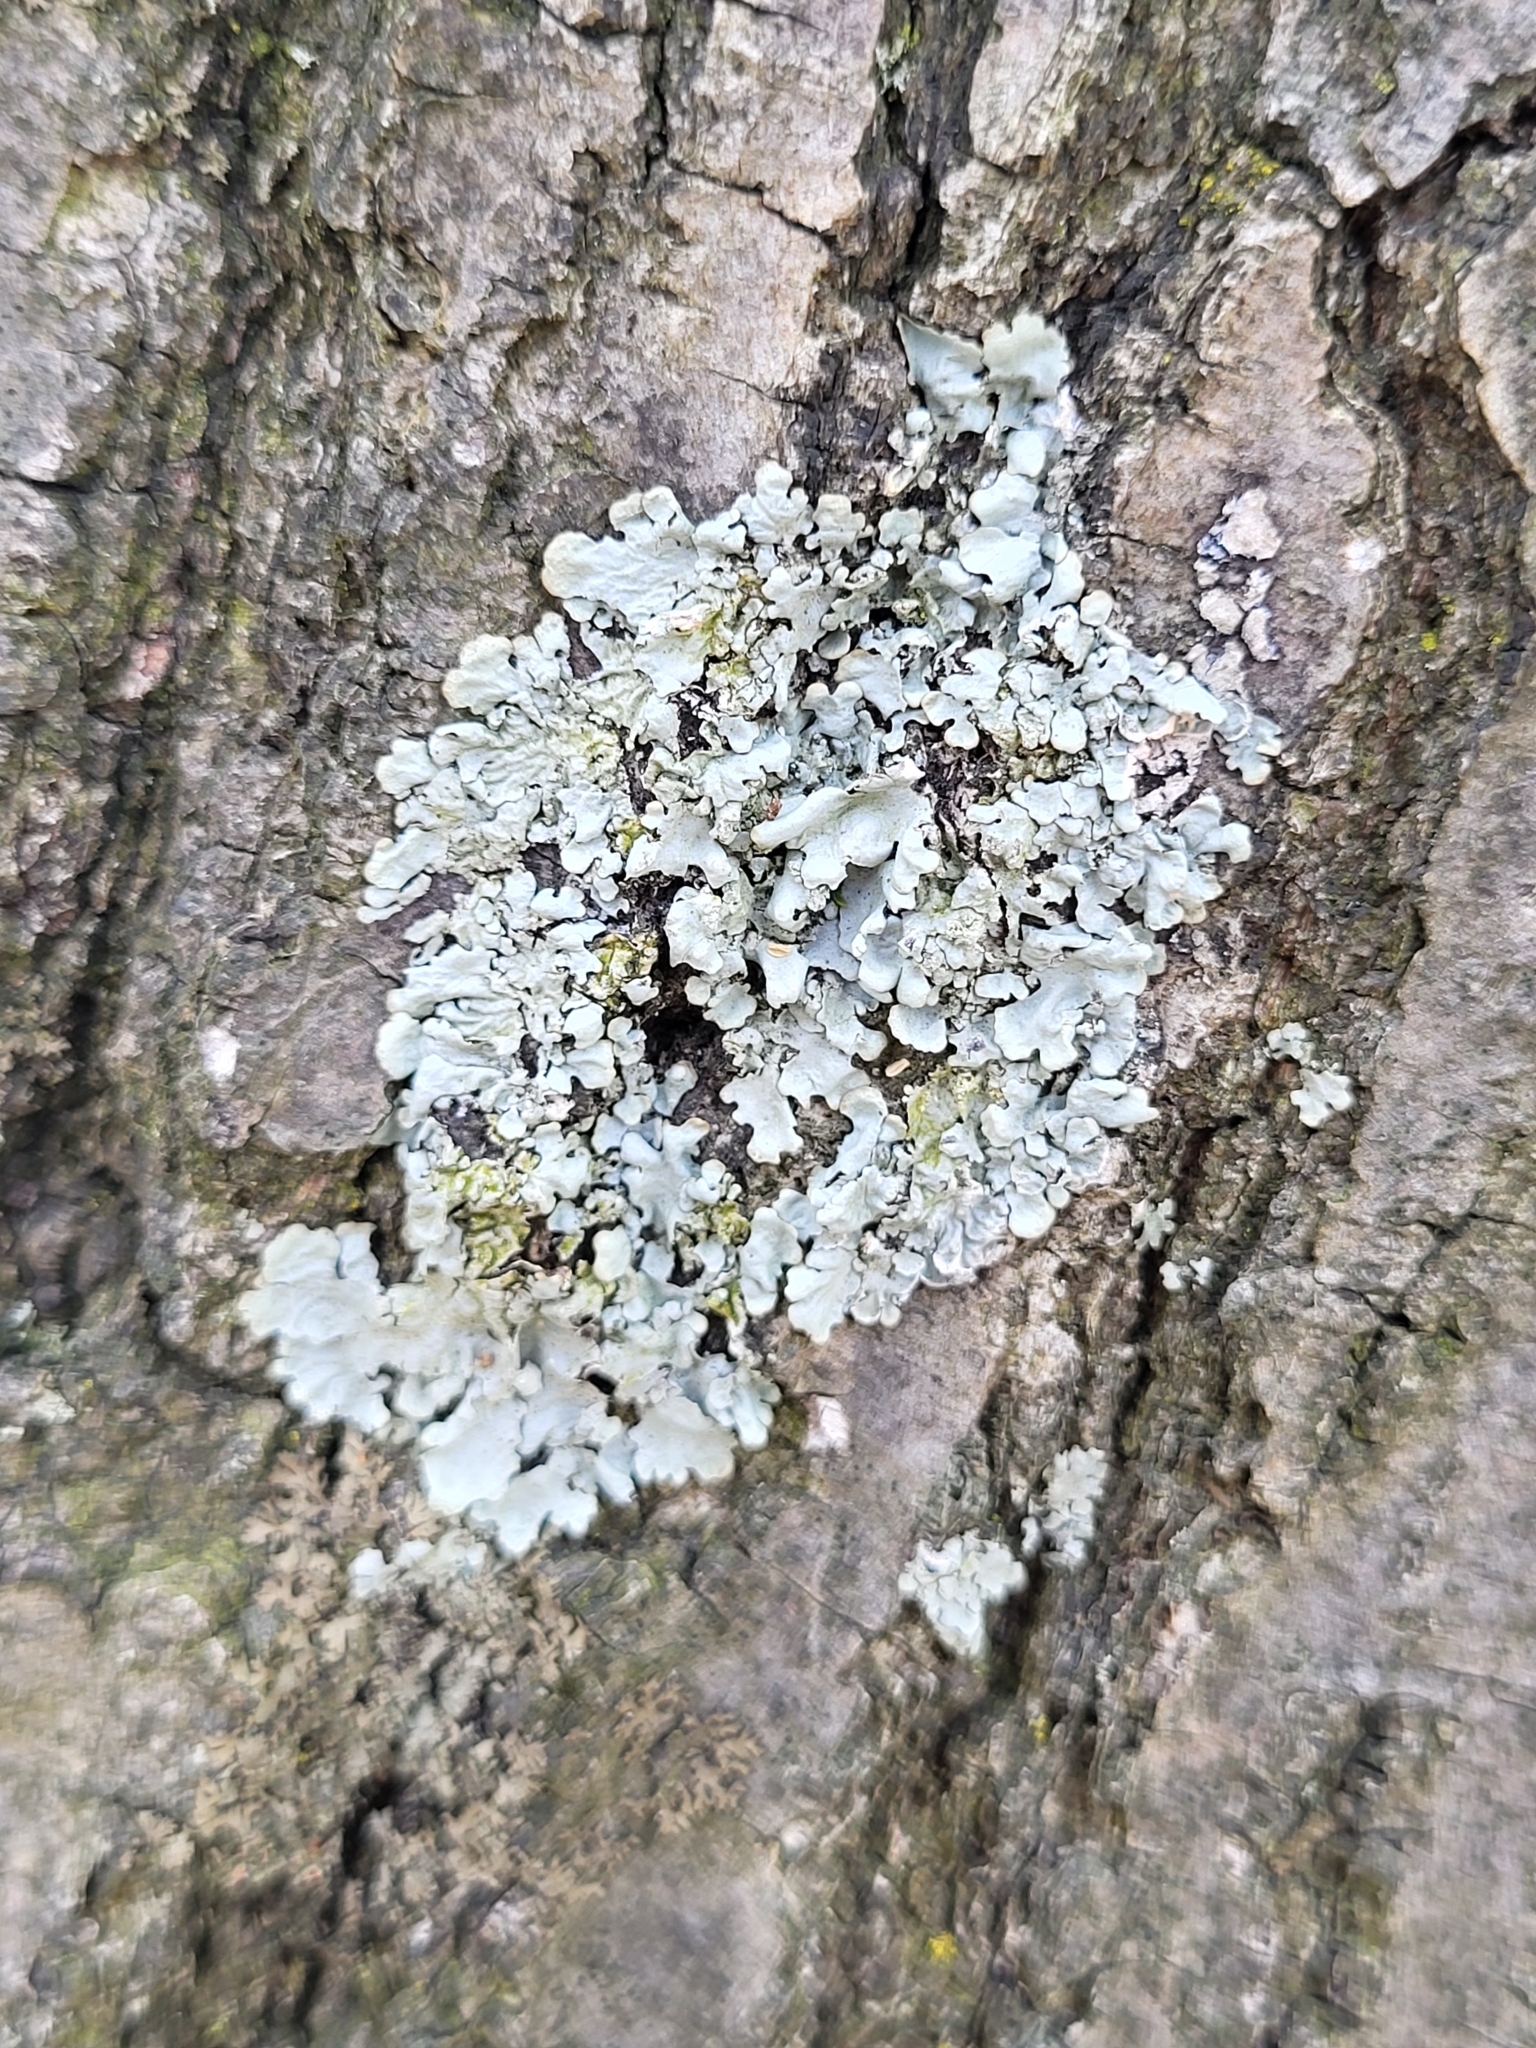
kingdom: Fungi
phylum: Ascomycota
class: Lecanoromycetes
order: Lecanorales
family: Parmeliaceae
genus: Myelochroa
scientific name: Myelochroa aurulenta
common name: Powdery axil-bristle lichen
